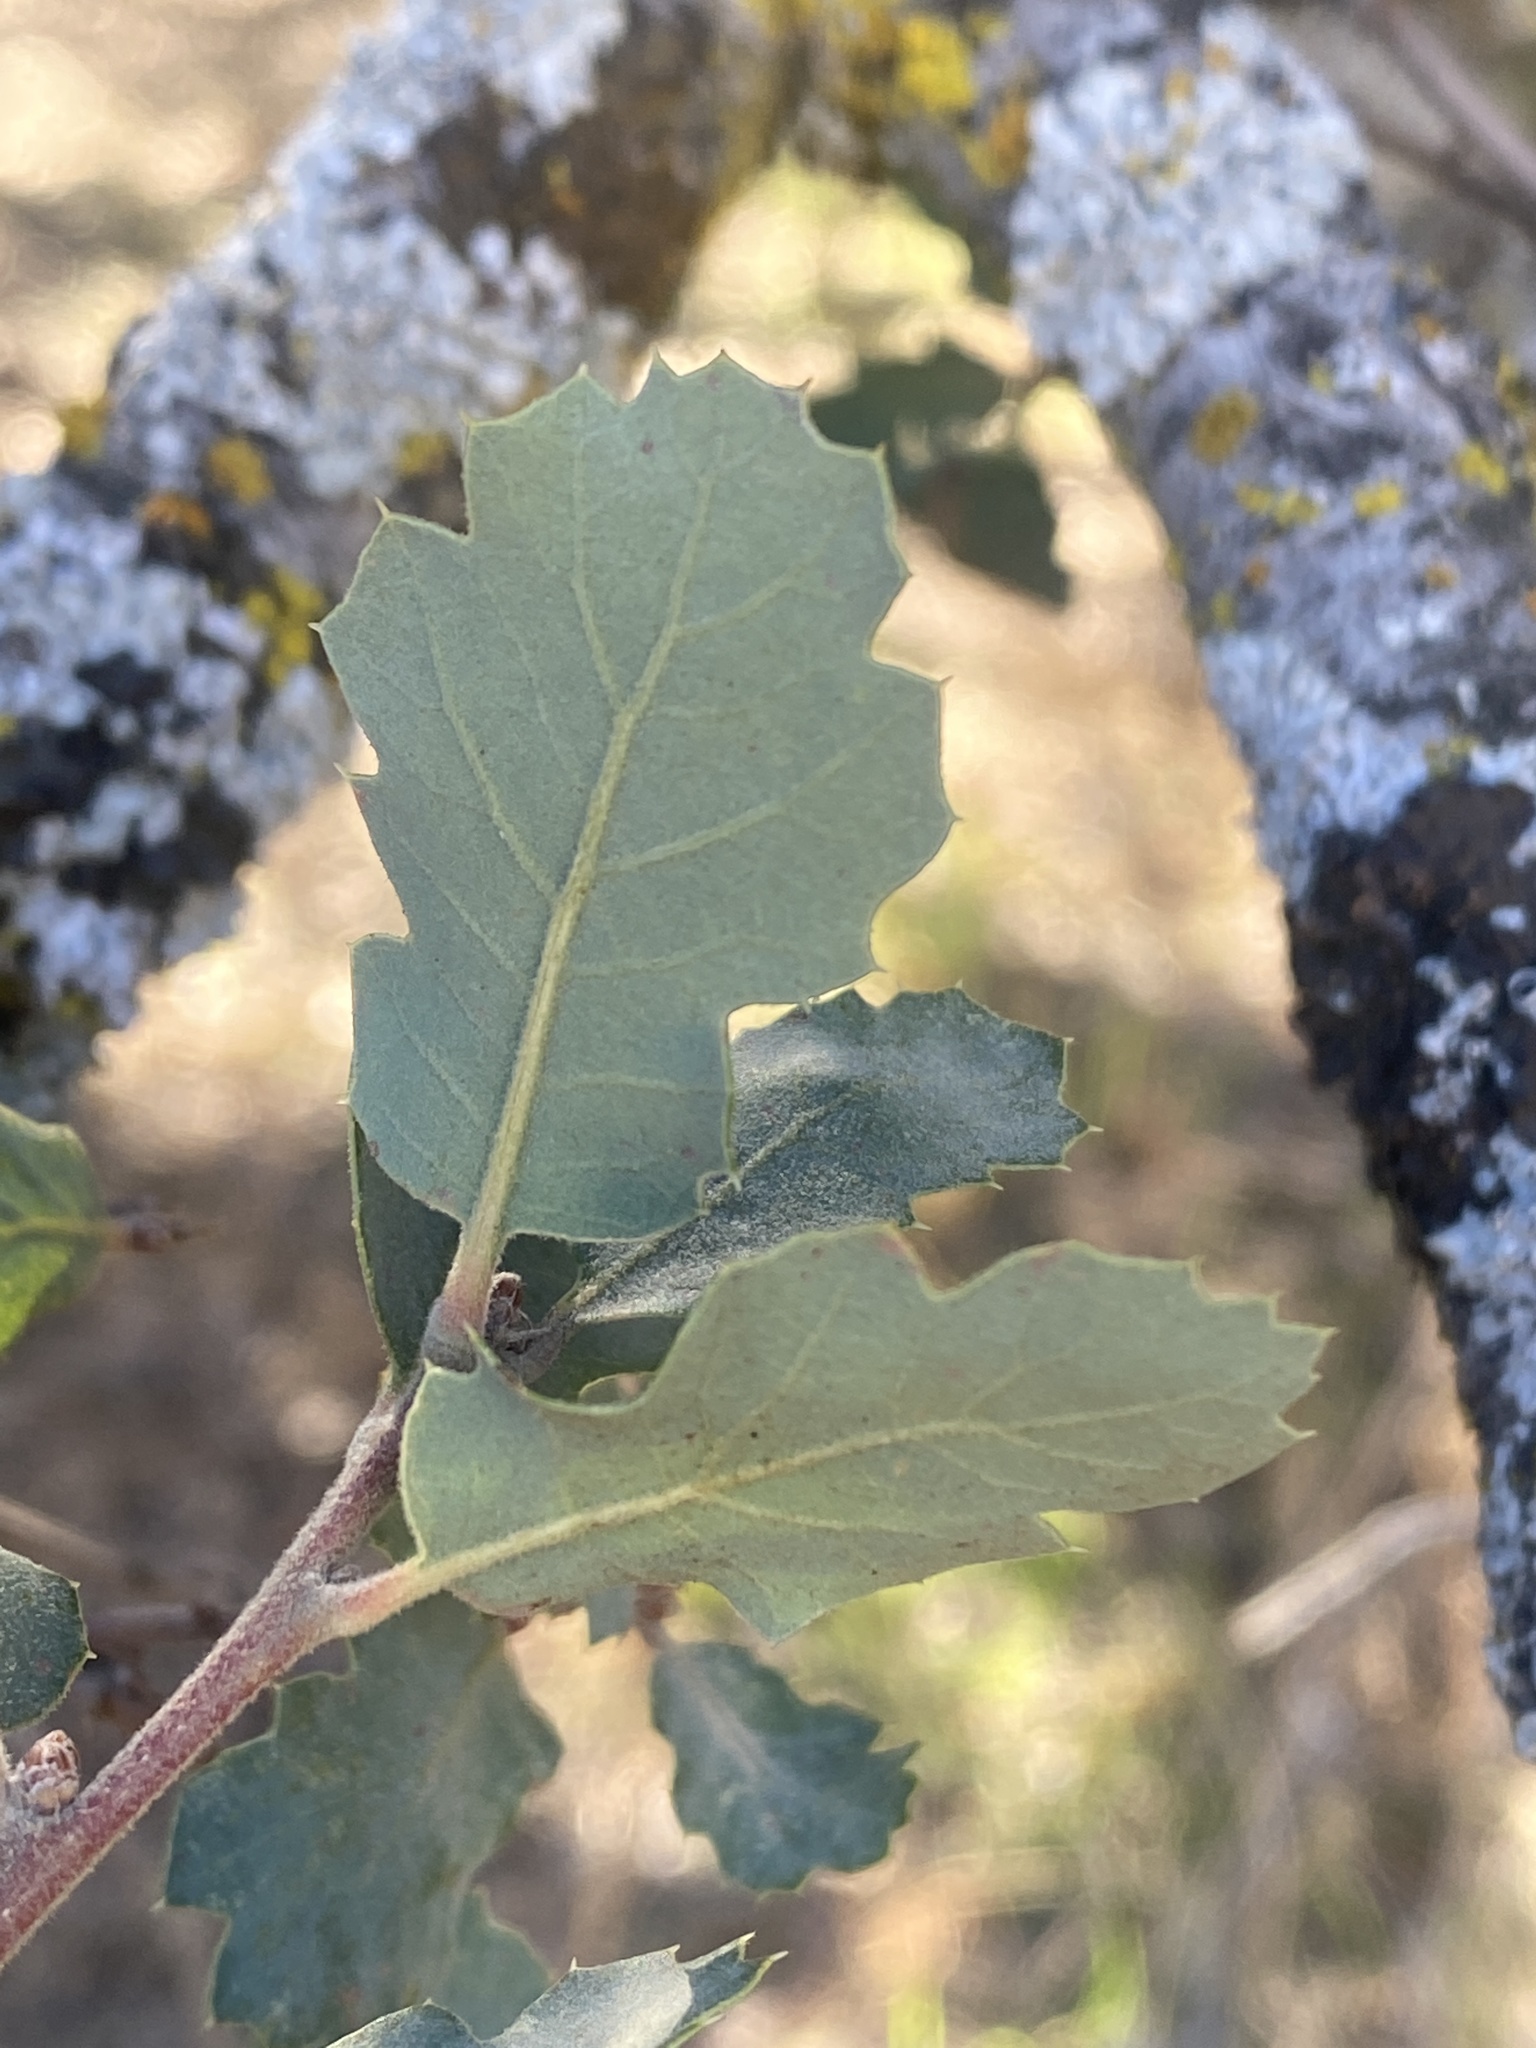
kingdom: Plantae
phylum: Tracheophyta
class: Magnoliopsida
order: Fagales
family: Fagaceae
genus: Quercus
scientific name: Quercus douglasii
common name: Blue oak
